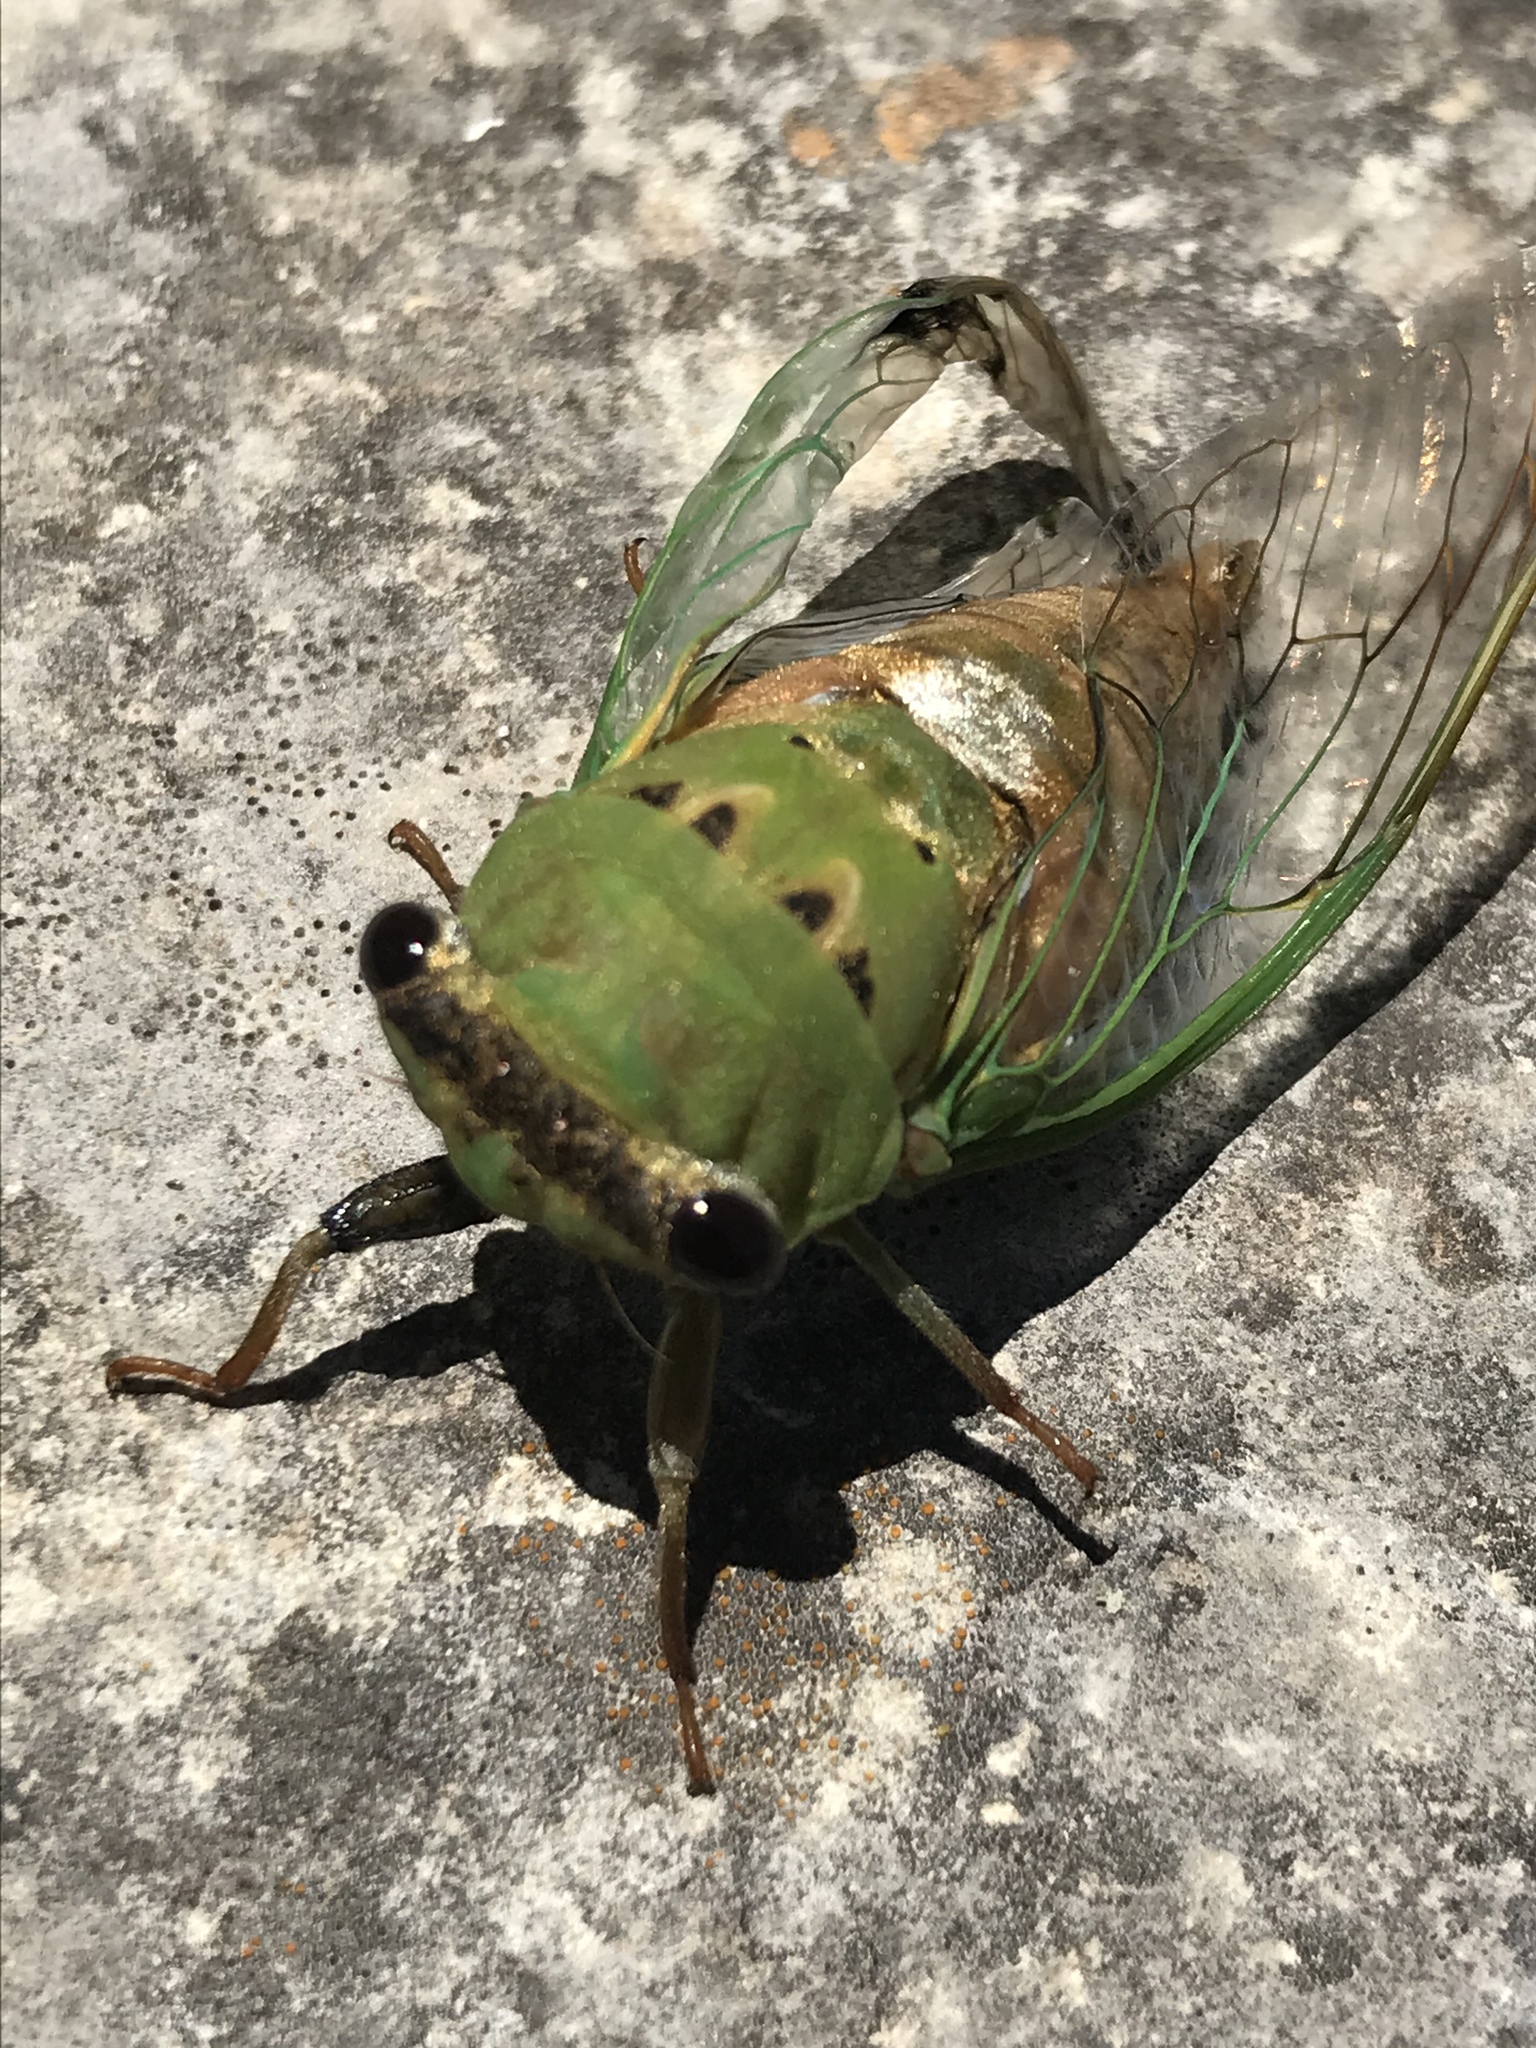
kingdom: Animalia
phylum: Arthropoda
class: Insecta
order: Hemiptera
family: Cicadidae
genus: Neotibicen
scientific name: Neotibicen superbus
